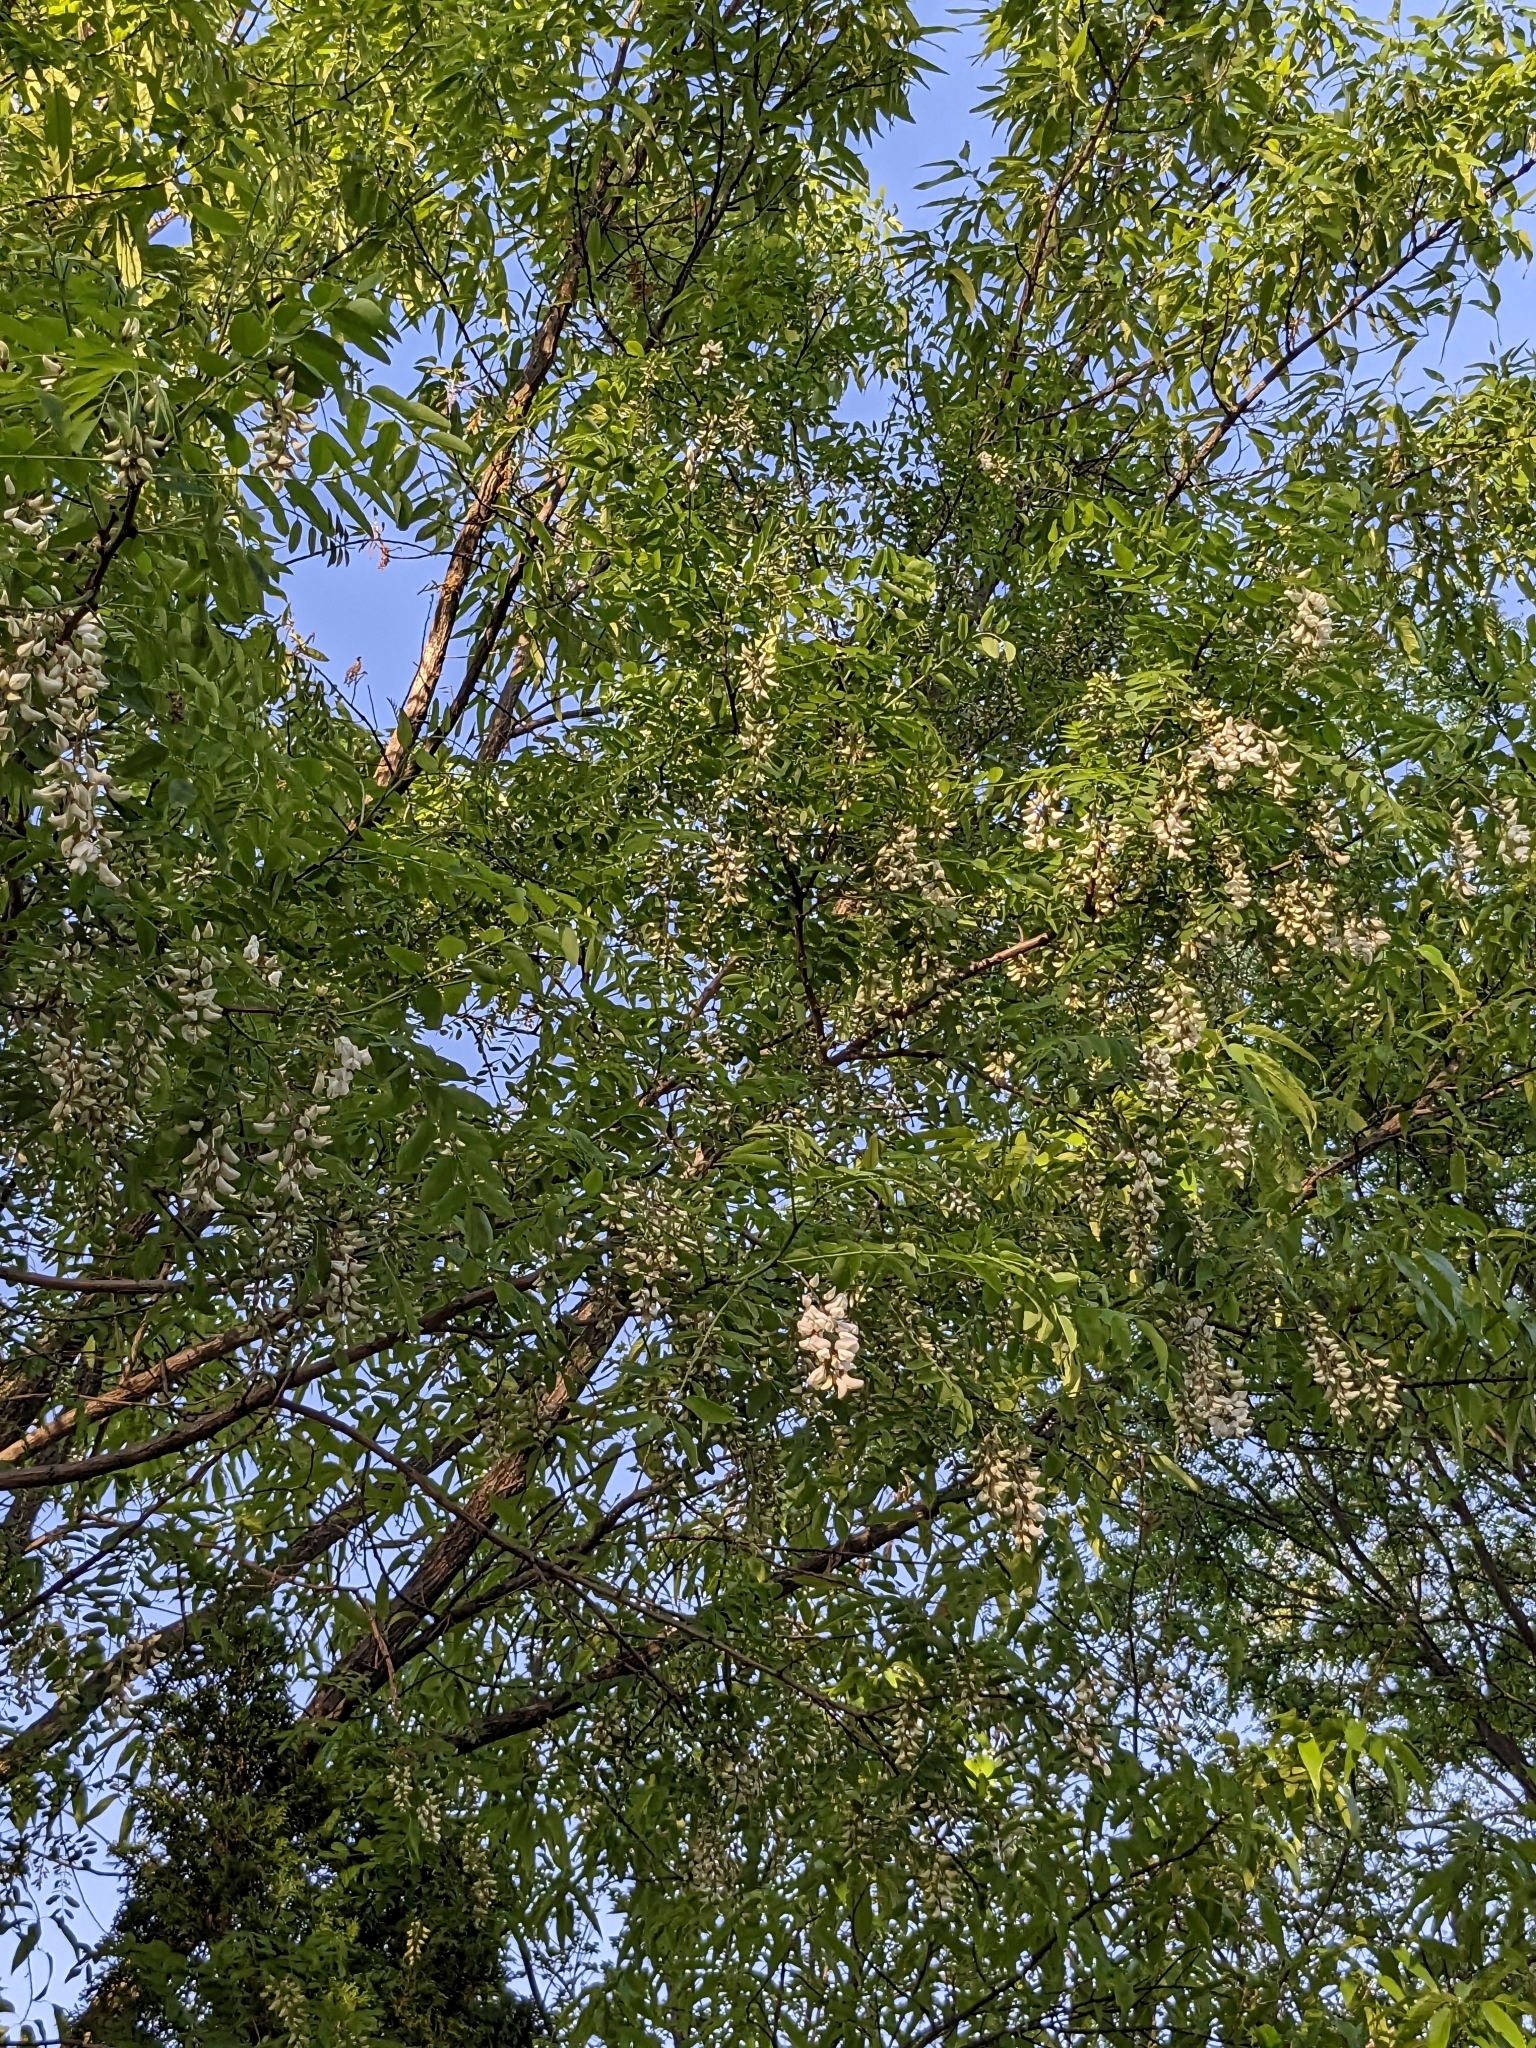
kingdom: Plantae
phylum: Tracheophyta
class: Magnoliopsida
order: Fabales
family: Fabaceae
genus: Robinia
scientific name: Robinia pseudoacacia
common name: Black locust
